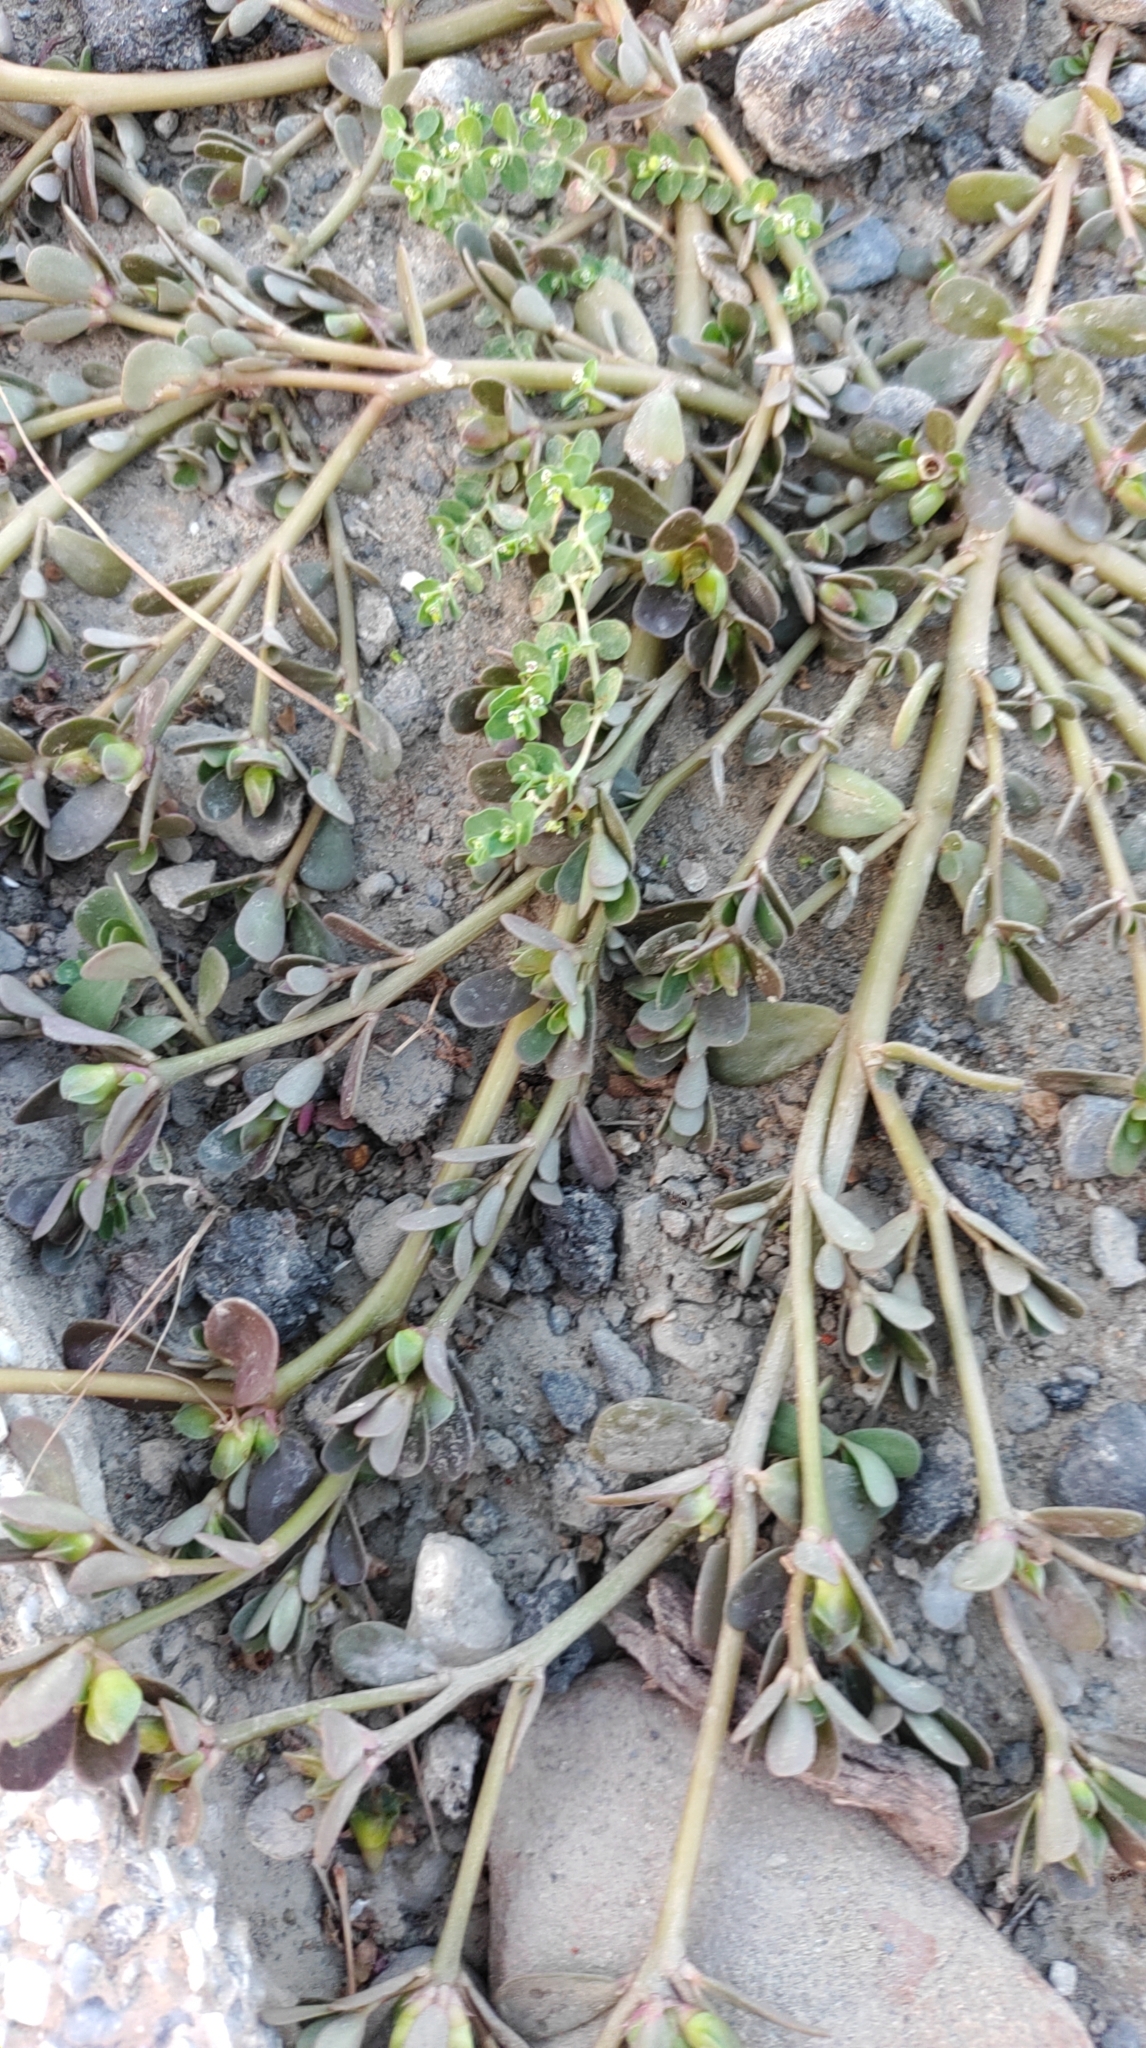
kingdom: Plantae
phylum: Tracheophyta
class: Magnoliopsida
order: Caryophyllales
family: Portulacaceae
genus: Portulaca
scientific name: Portulaca oleracea
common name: Common purslane
